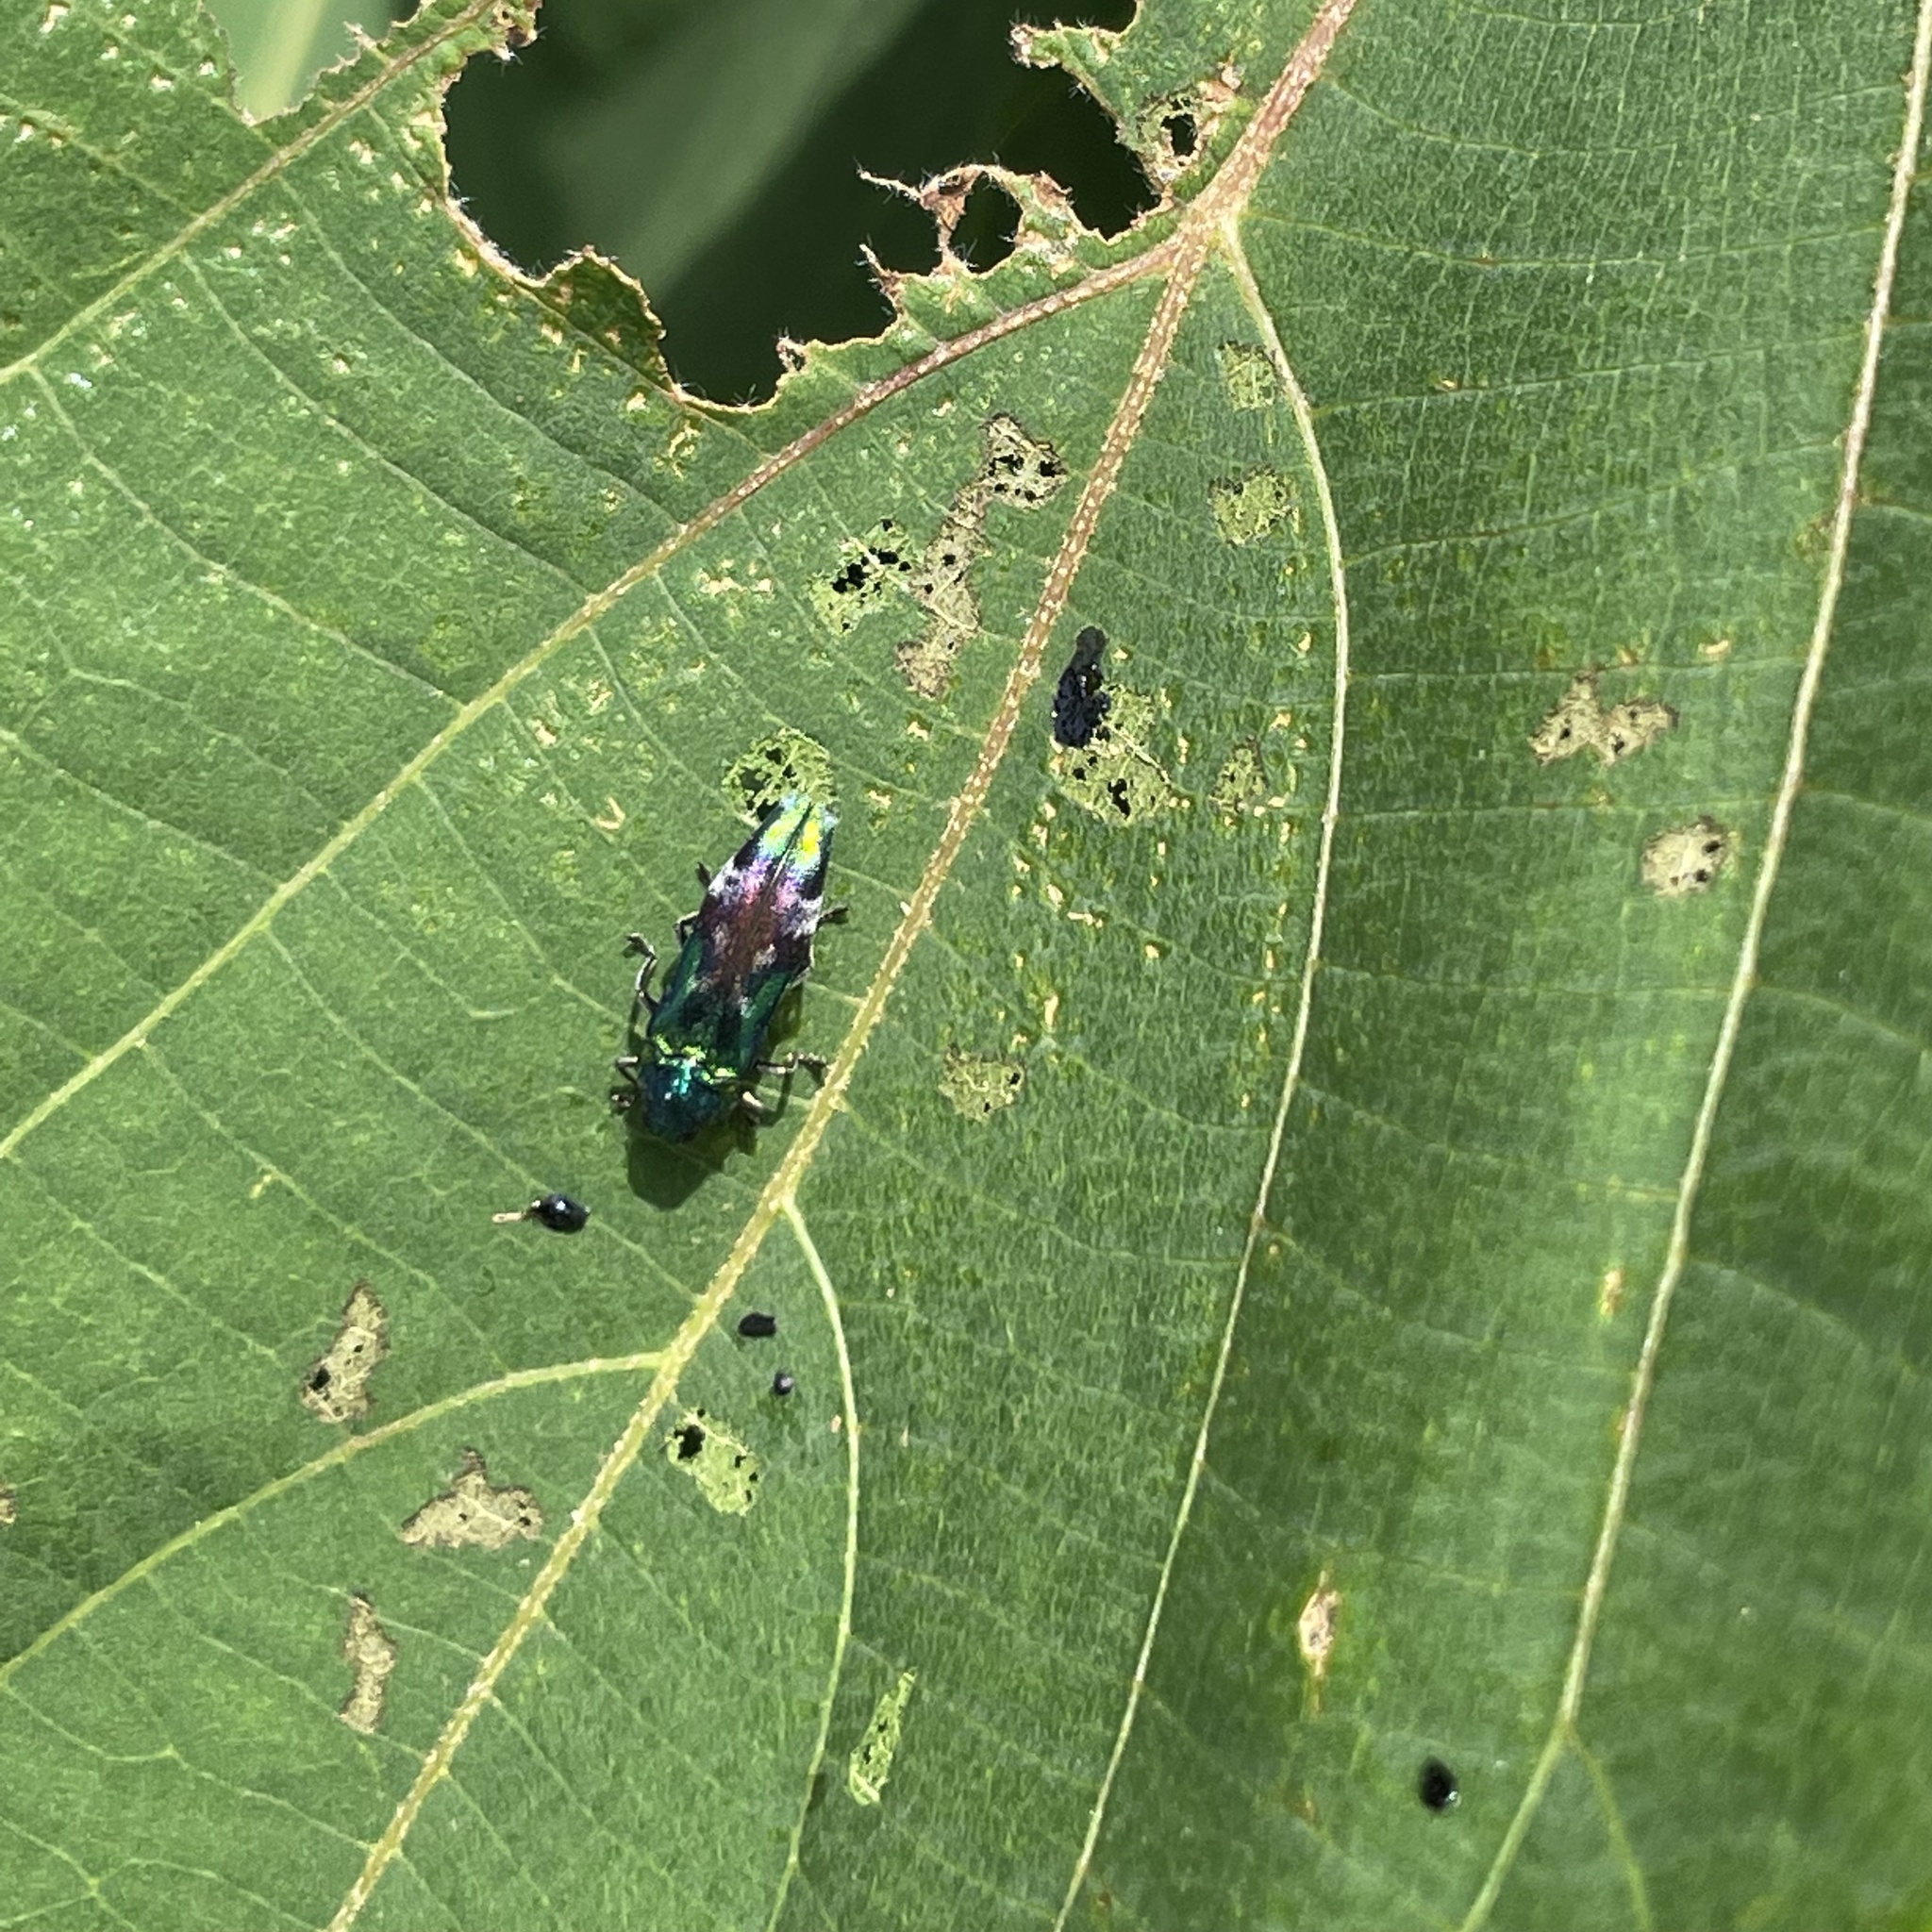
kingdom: Animalia
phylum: Arthropoda
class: Insecta
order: Coleoptera
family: Buprestidae
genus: Coraebus
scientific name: Coraebus hastanus
